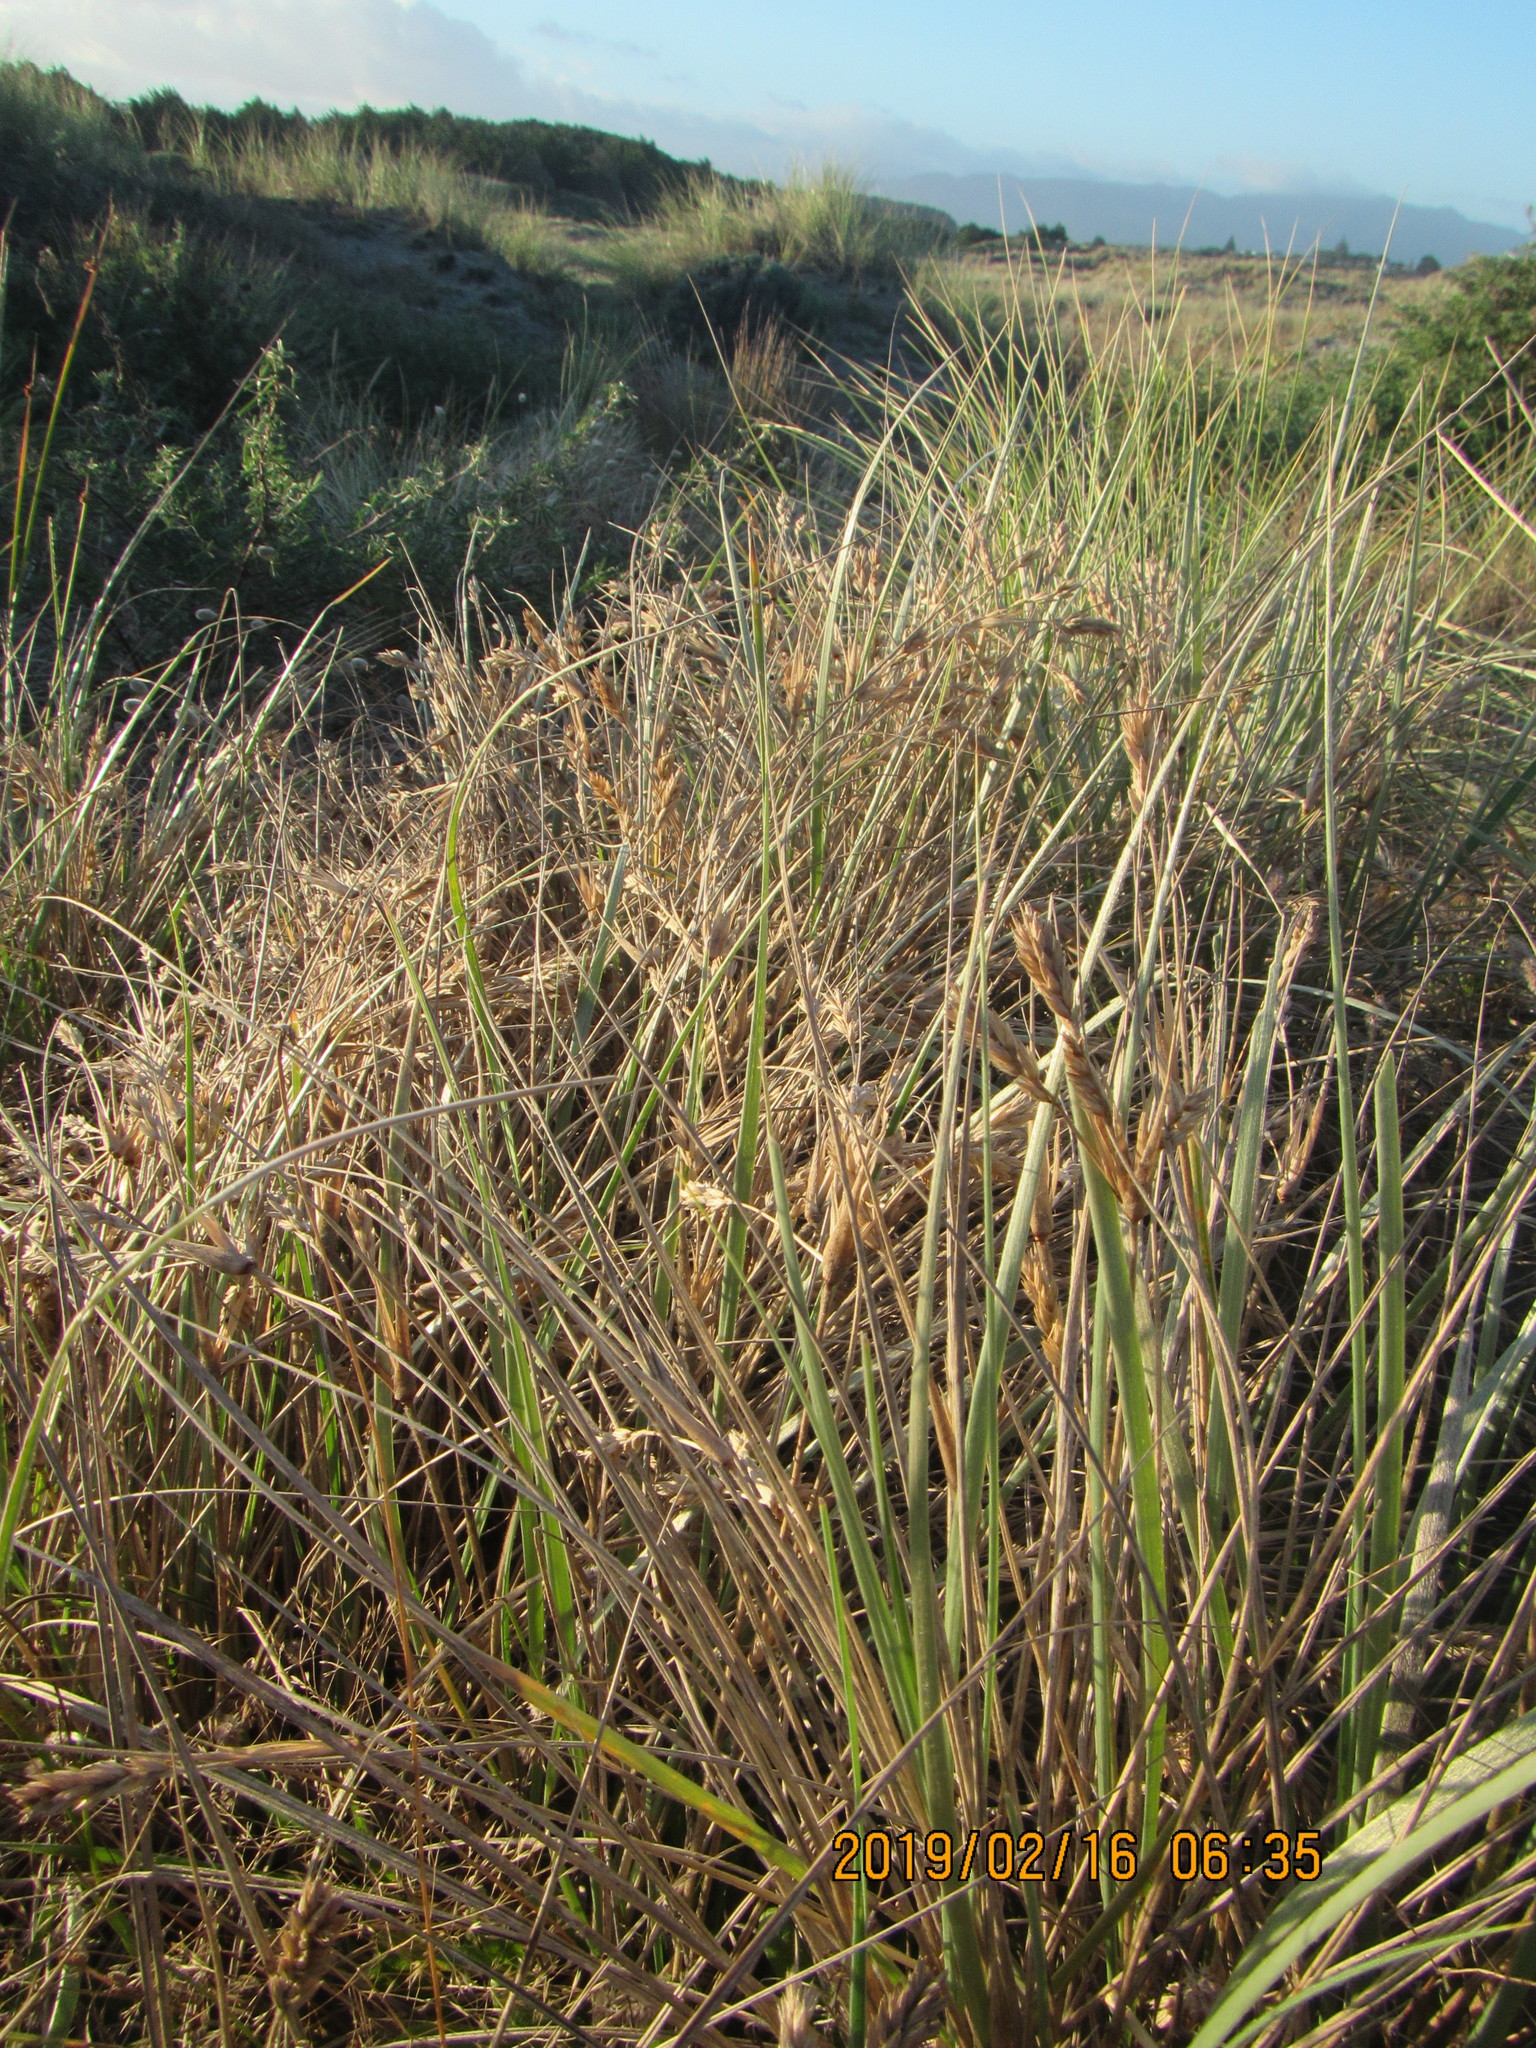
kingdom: Plantae
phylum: Tracheophyta
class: Liliopsida
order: Poales
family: Poaceae
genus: Spinifex
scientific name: Spinifex sericeus
